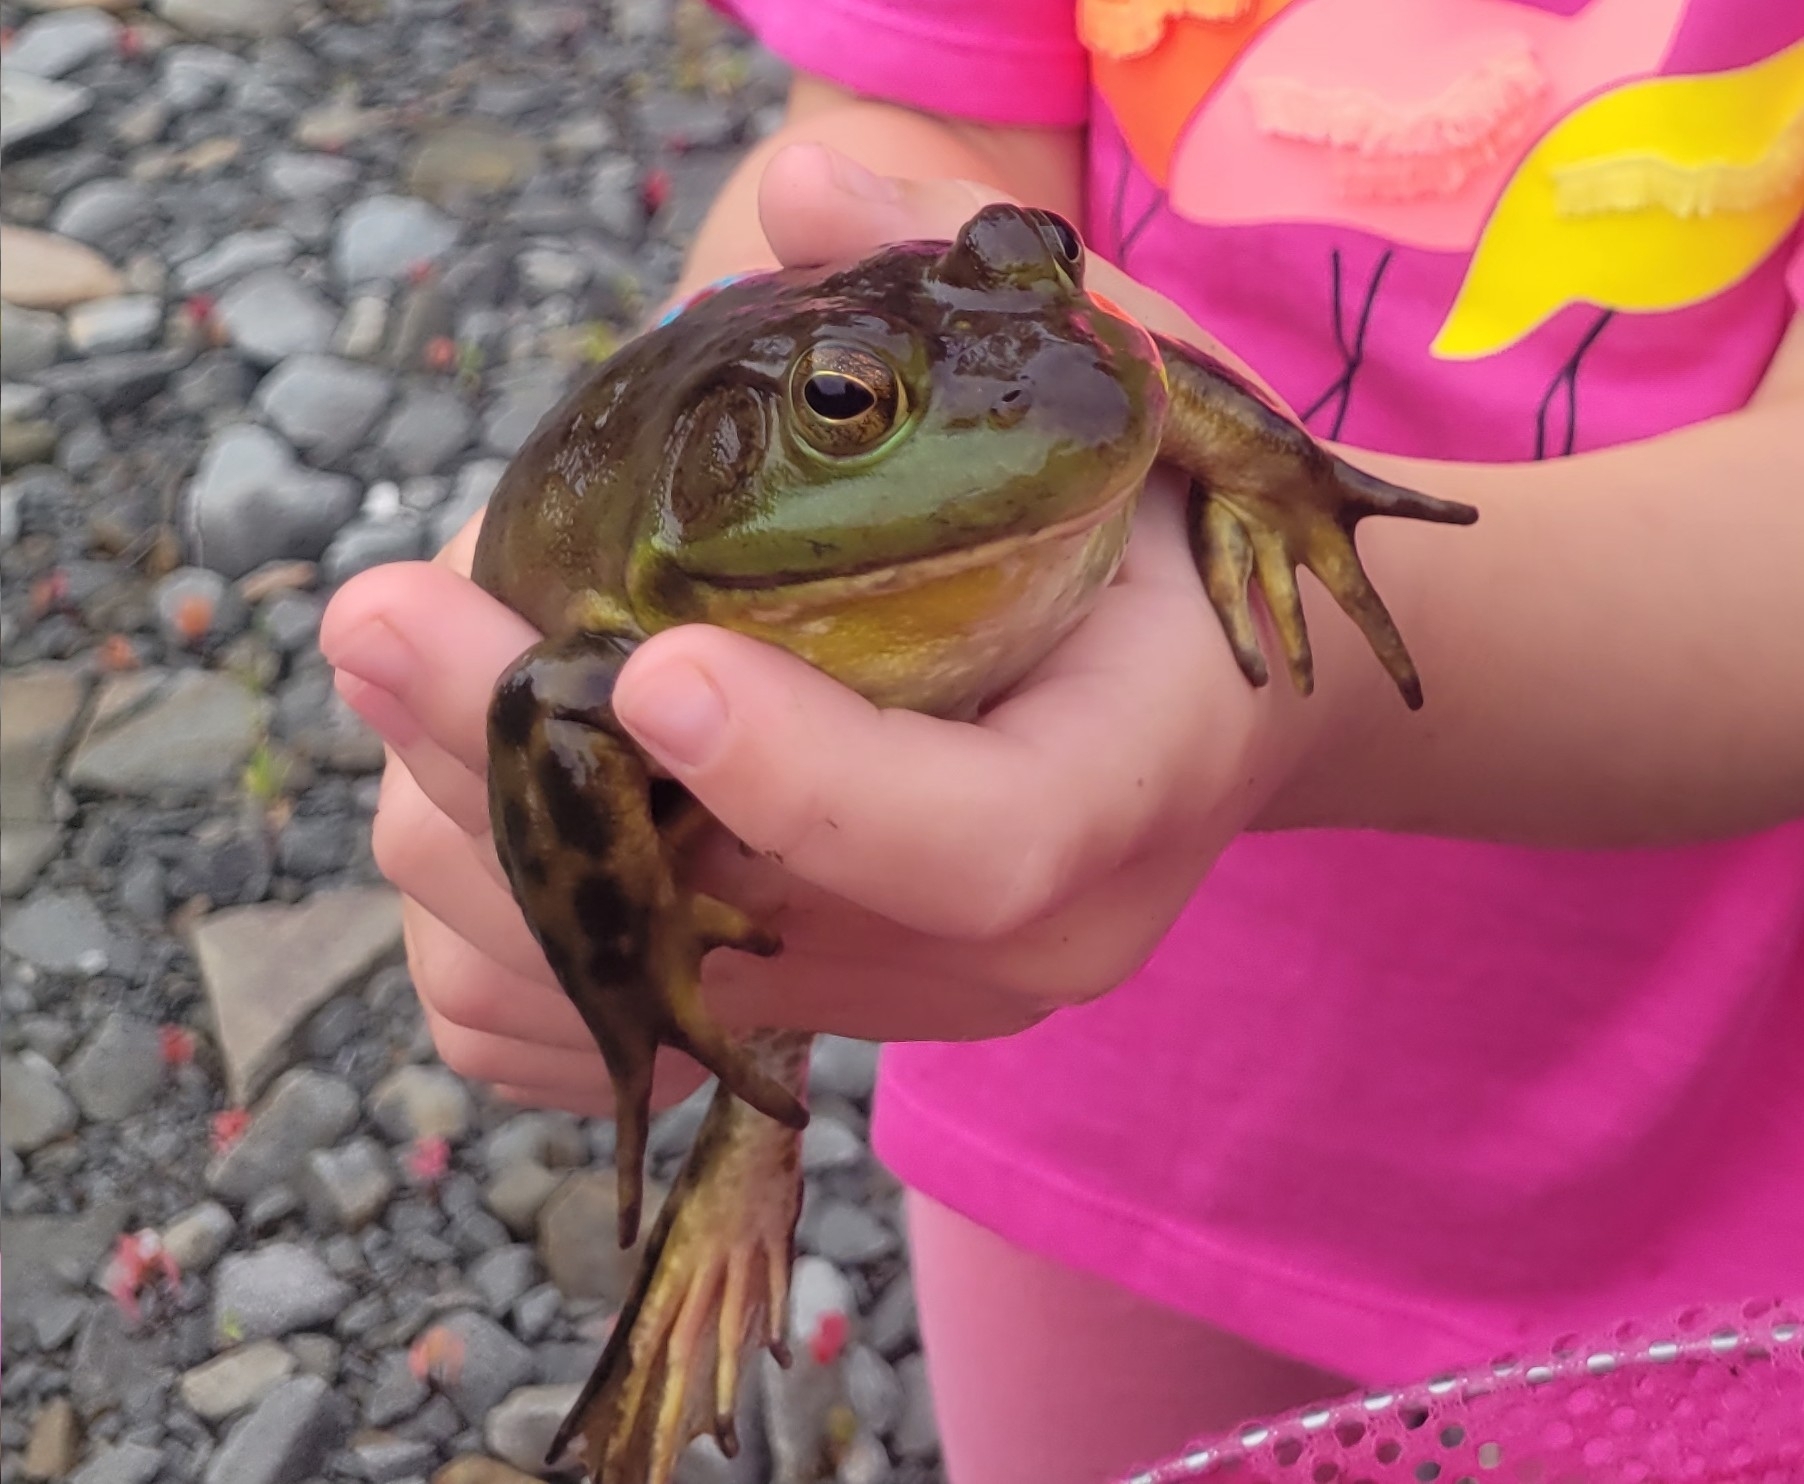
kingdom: Animalia
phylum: Chordata
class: Amphibia
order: Anura
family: Ranidae
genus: Lithobates
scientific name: Lithobates catesbeianus
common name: American bullfrog
